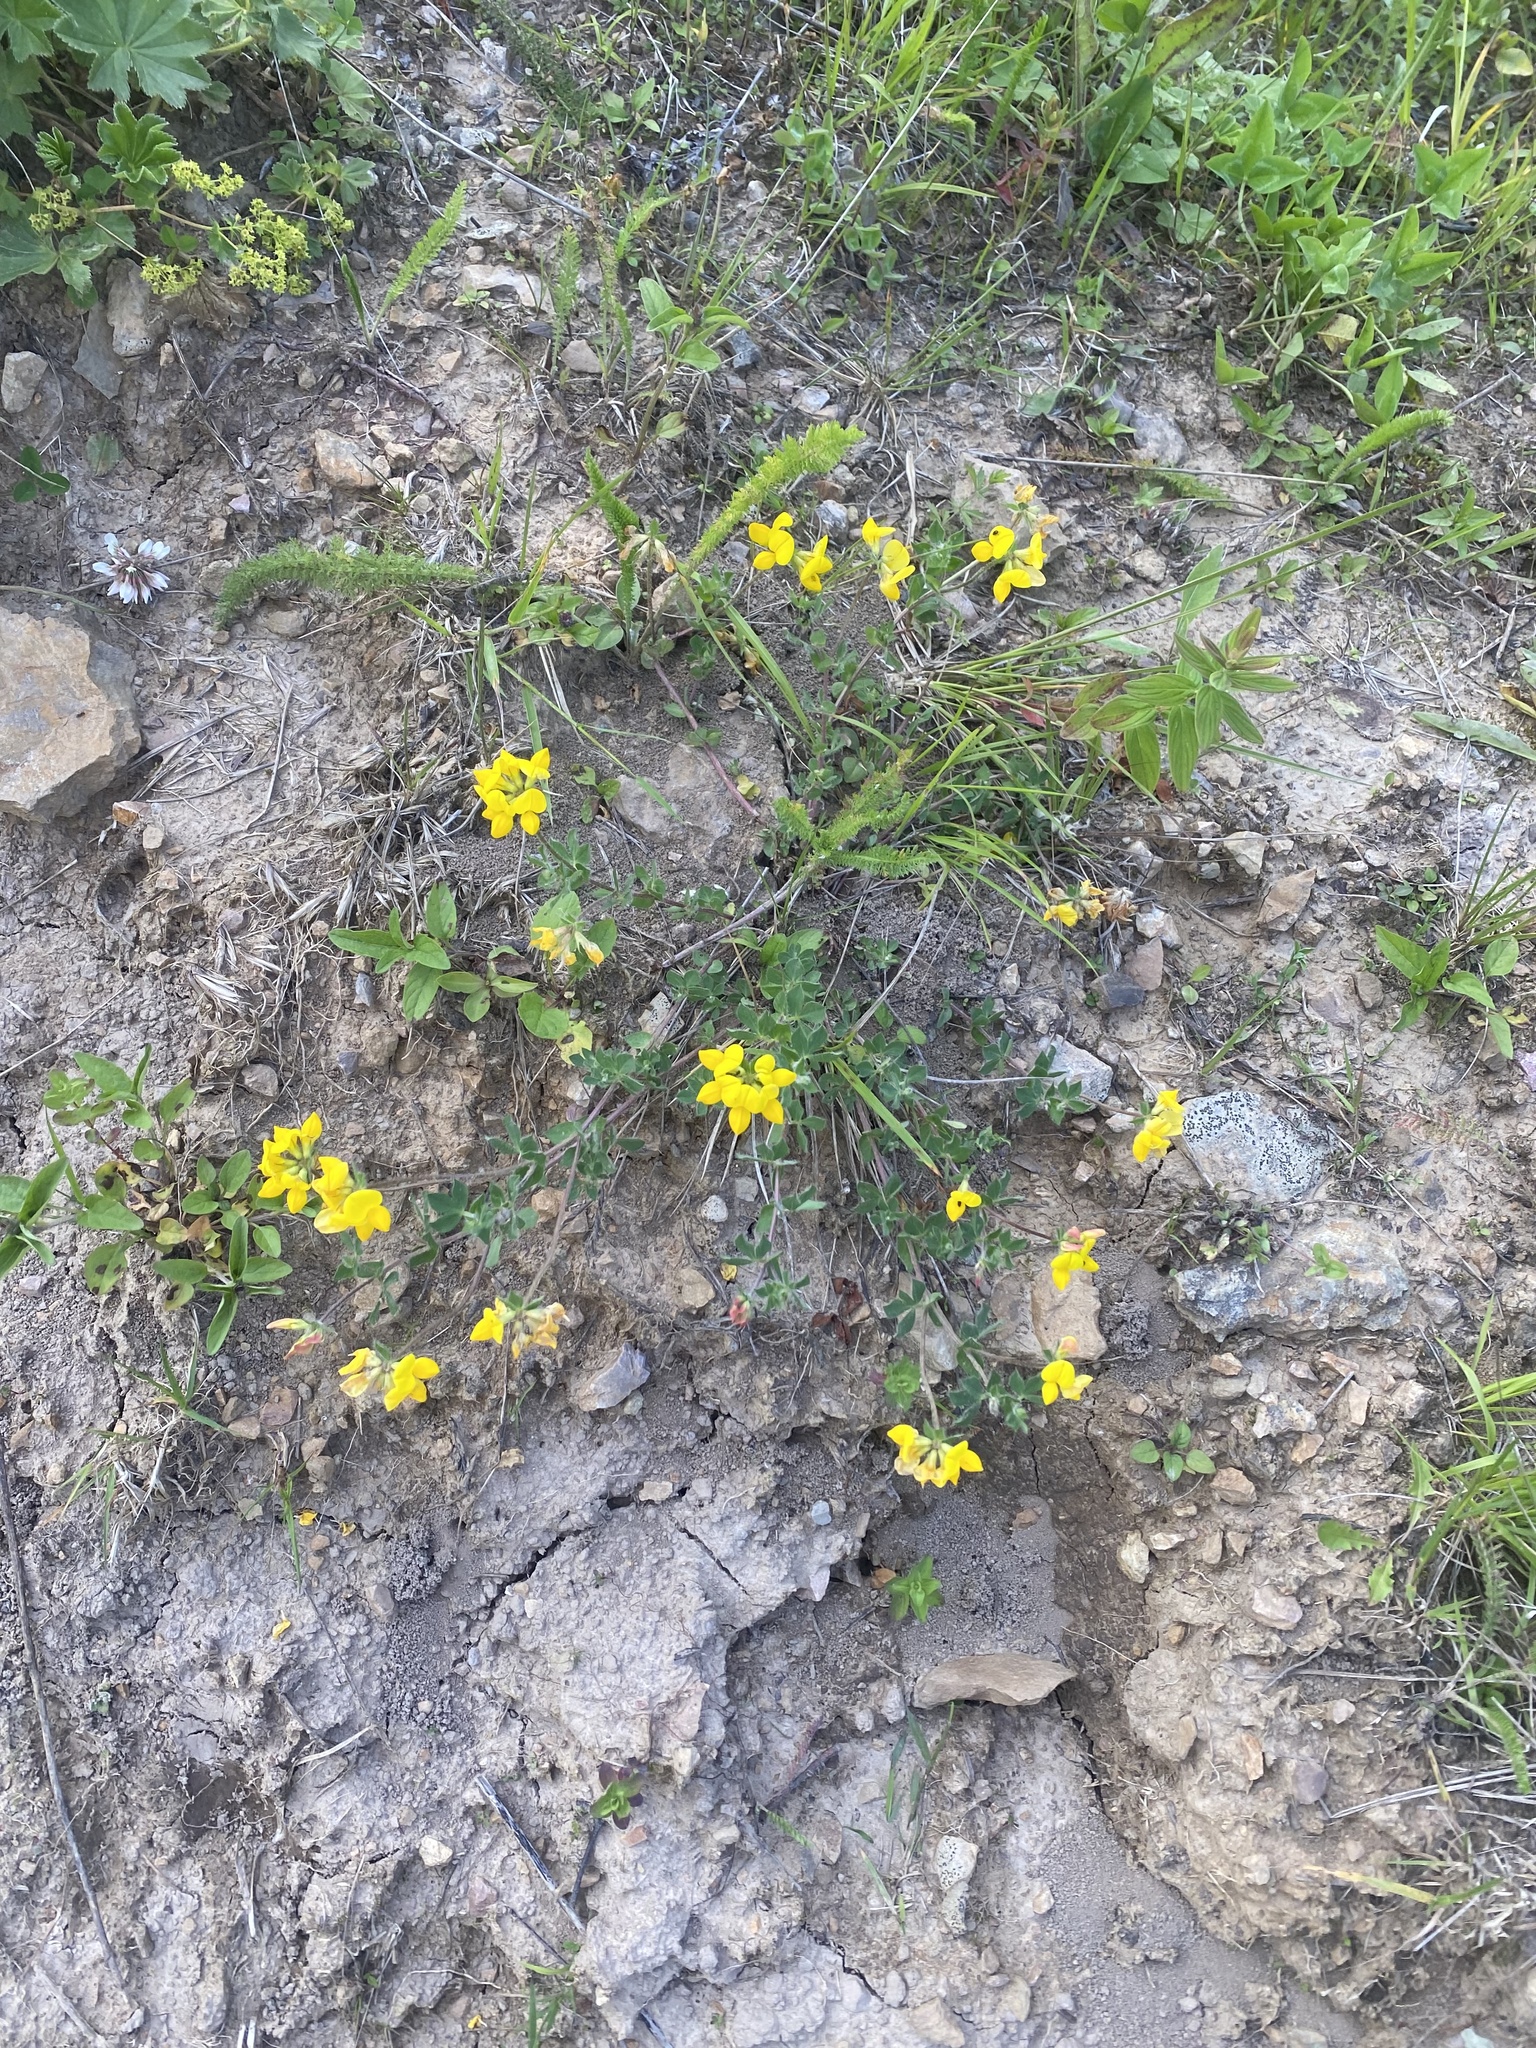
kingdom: Plantae
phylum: Tracheophyta
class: Magnoliopsida
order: Fabales
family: Fabaceae
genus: Lotus
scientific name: Lotus corniculatus
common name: Common bird's-foot-trefoil
